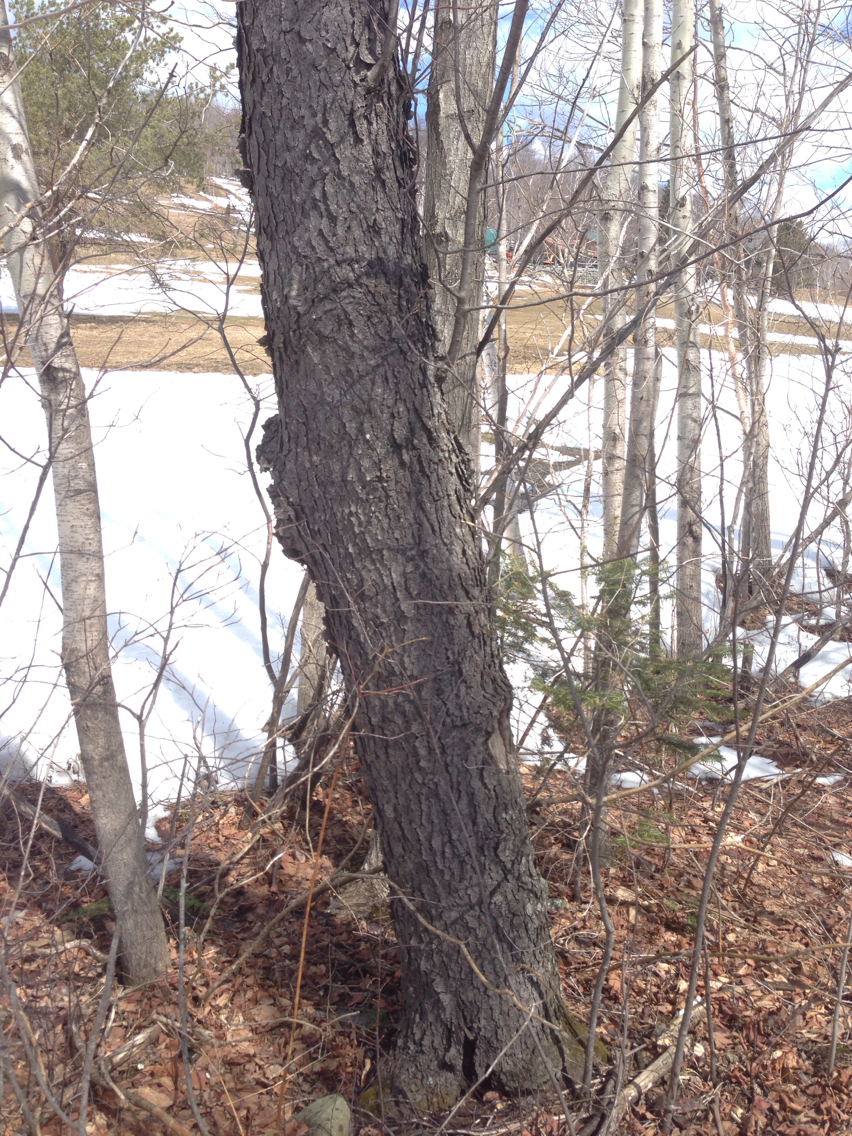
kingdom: Plantae
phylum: Tracheophyta
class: Magnoliopsida
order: Rosales
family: Rosaceae
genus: Prunus
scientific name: Prunus serotina
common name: Black cherry
